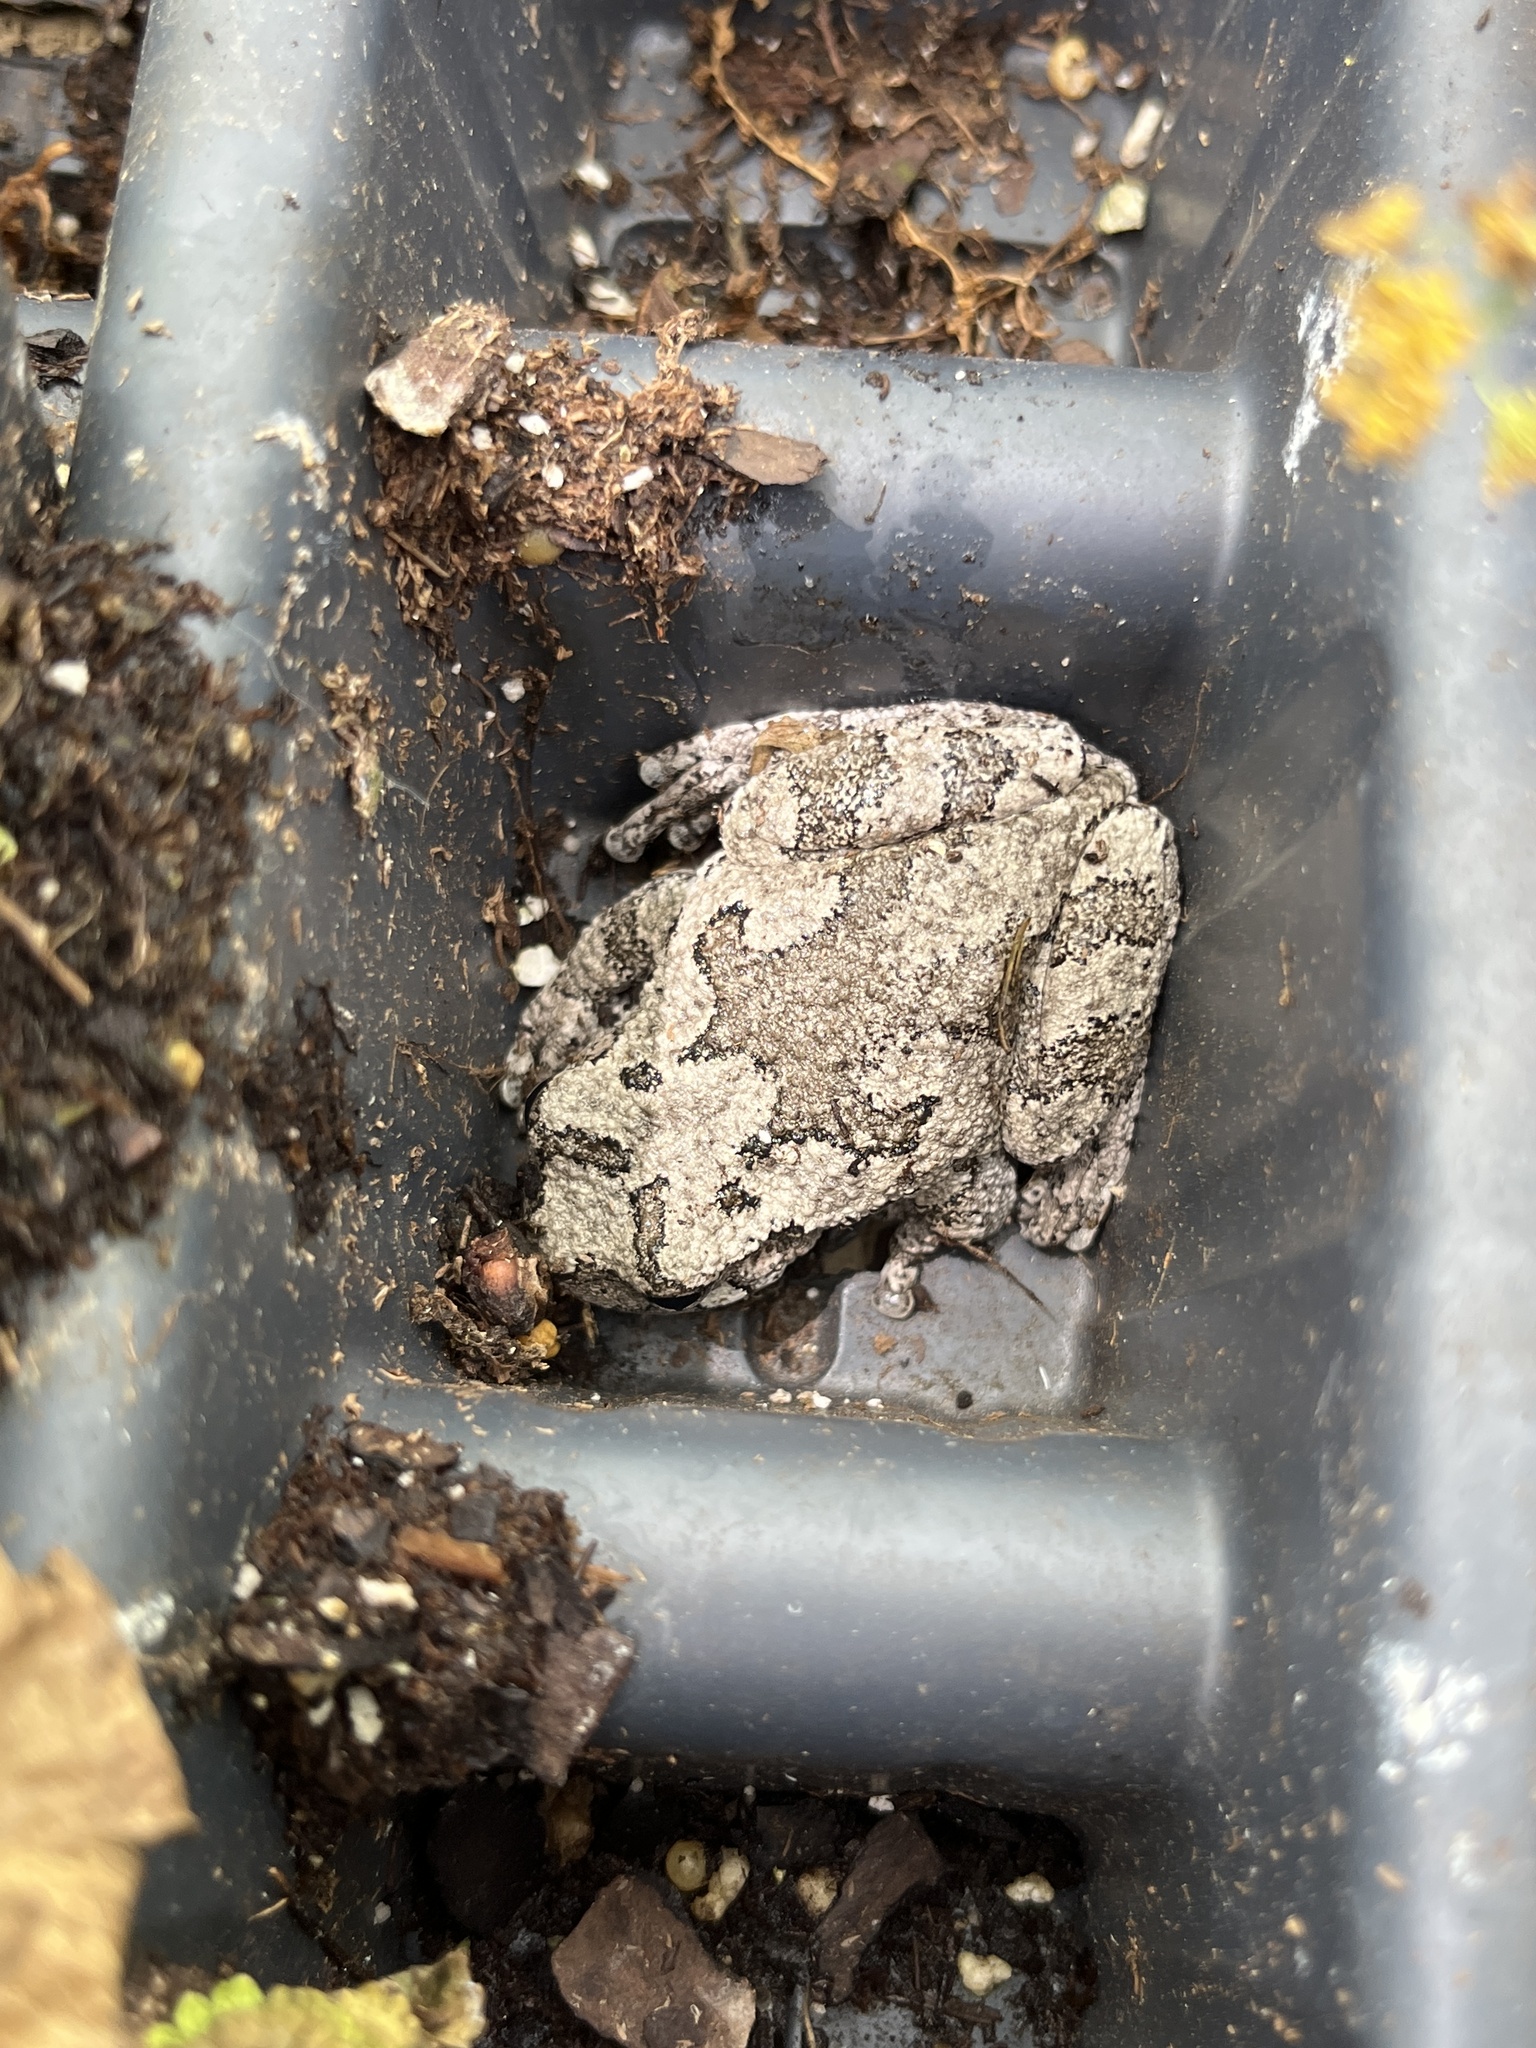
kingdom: Animalia
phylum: Chordata
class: Amphibia
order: Anura
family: Hylidae
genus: Dryophytes
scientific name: Dryophytes versicolor
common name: Gray treefrog
